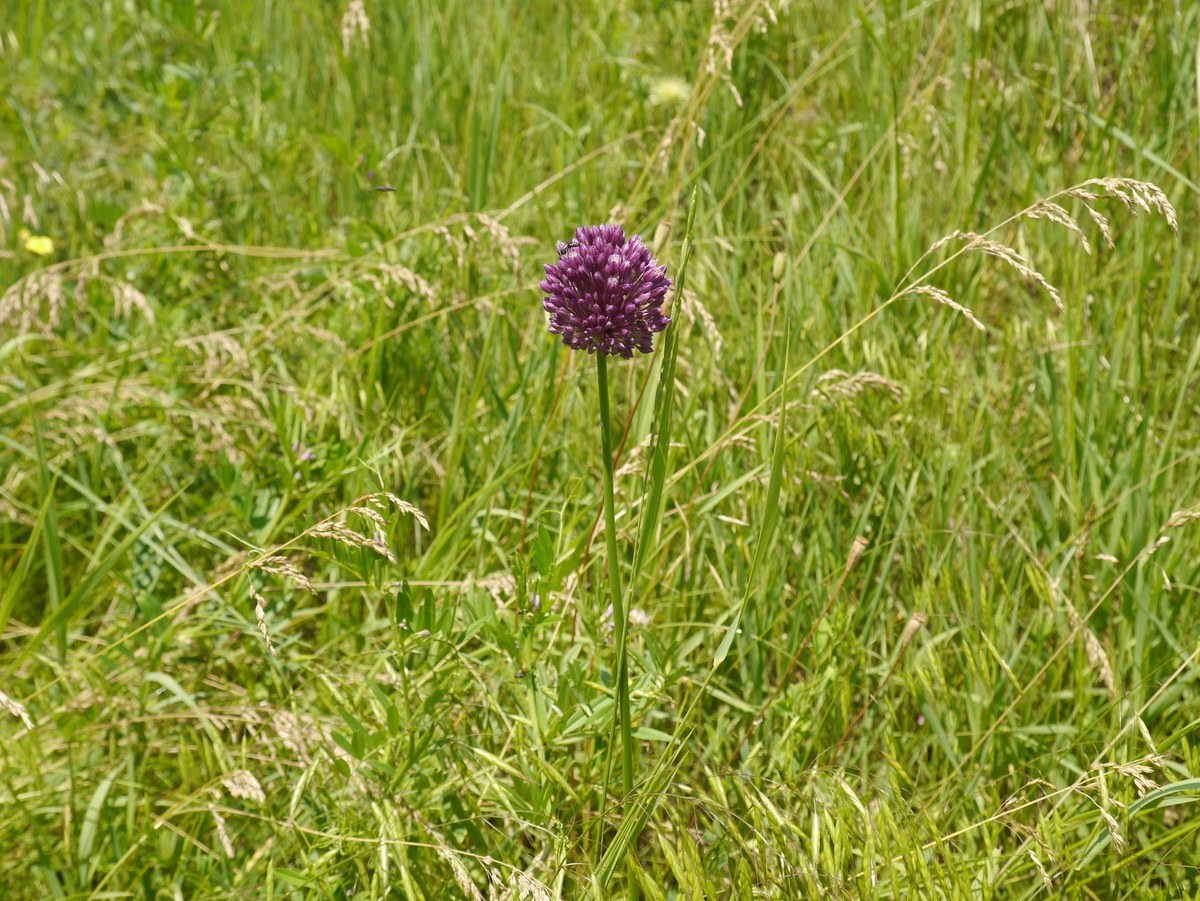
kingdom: Plantae
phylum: Tracheophyta
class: Liliopsida
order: Asparagales
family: Amaryllidaceae
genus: Allium
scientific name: Allium rotundum
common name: Sand leek
